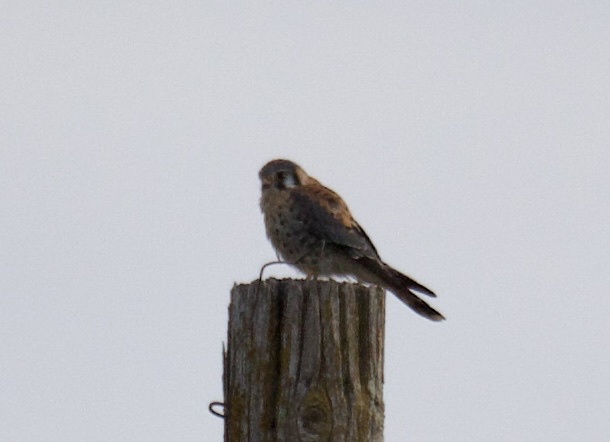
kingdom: Animalia
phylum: Chordata
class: Aves
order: Falconiformes
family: Falconidae
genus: Falco
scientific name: Falco sparverius
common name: American kestrel
